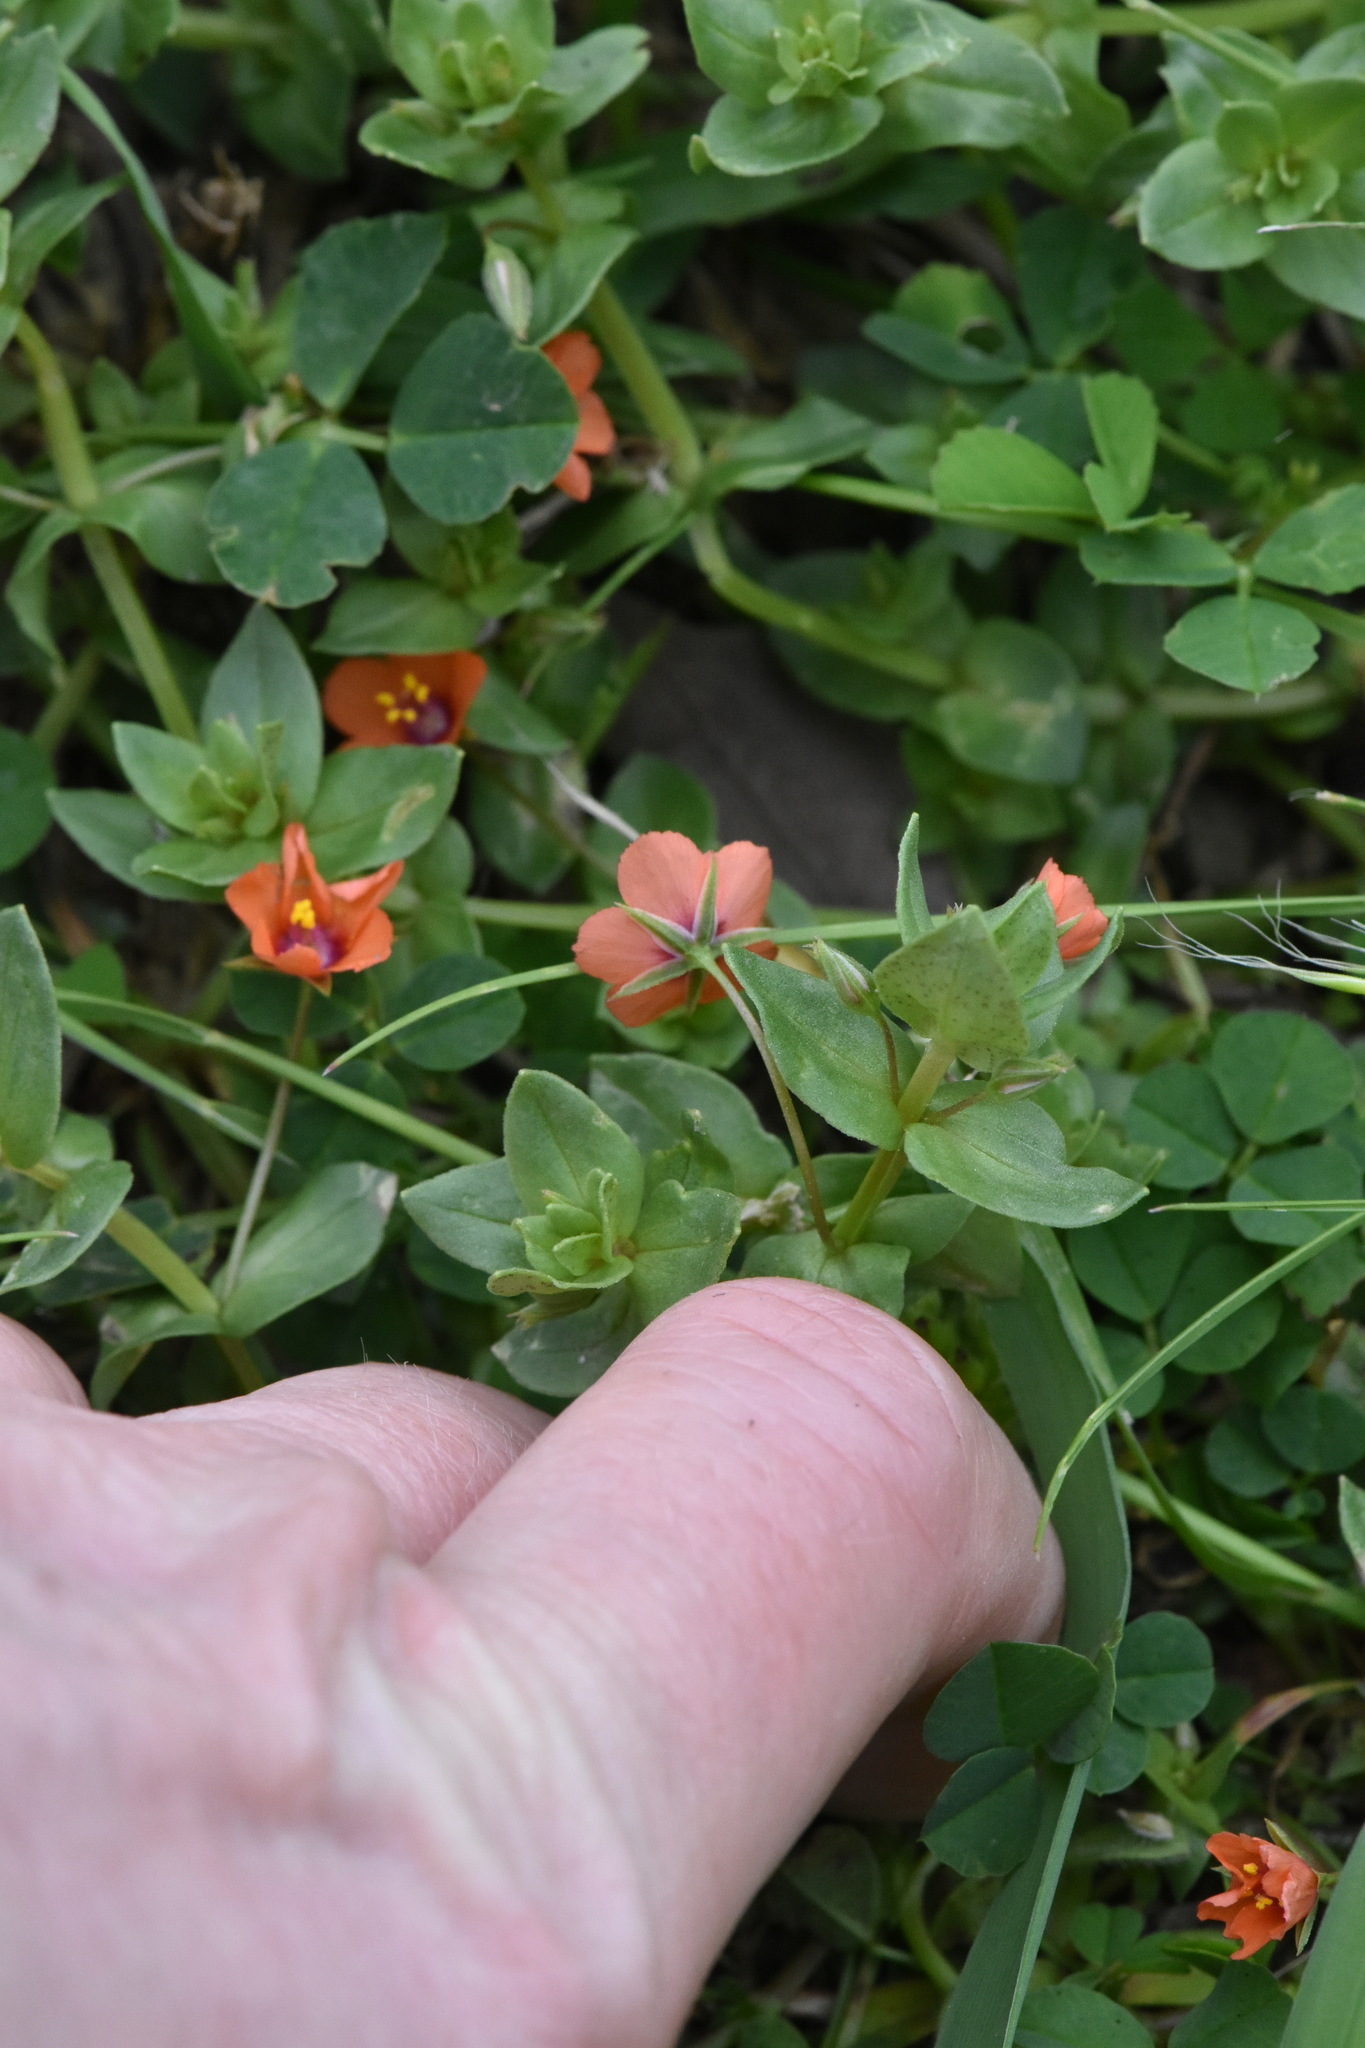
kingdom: Plantae
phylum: Tracheophyta
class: Magnoliopsida
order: Ericales
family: Primulaceae
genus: Lysimachia
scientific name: Lysimachia arvensis
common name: Scarlet pimpernel
